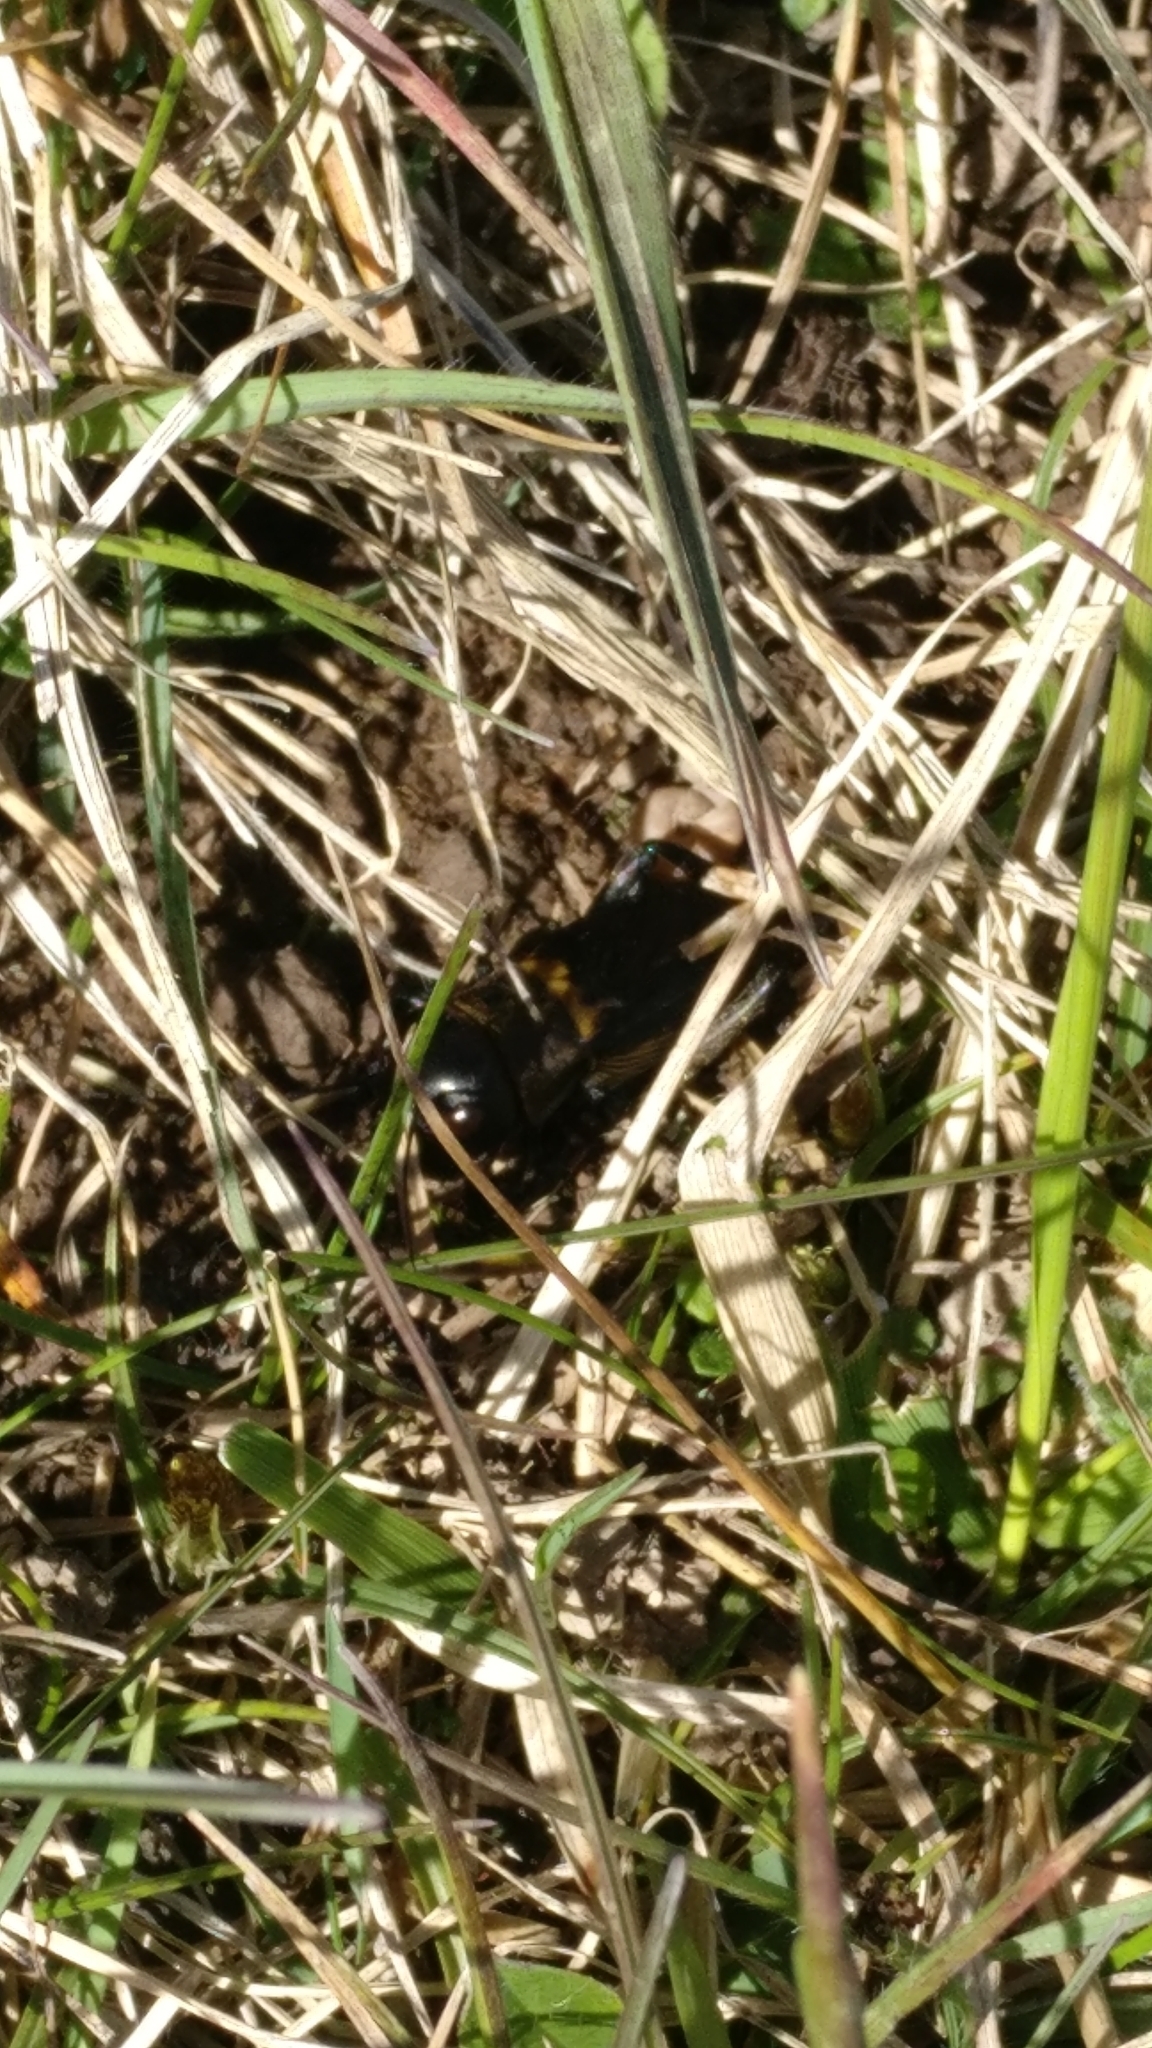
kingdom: Animalia
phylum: Arthropoda
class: Insecta
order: Orthoptera
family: Gryllidae
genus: Gryllus
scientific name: Gryllus campestris
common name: Field cricket
